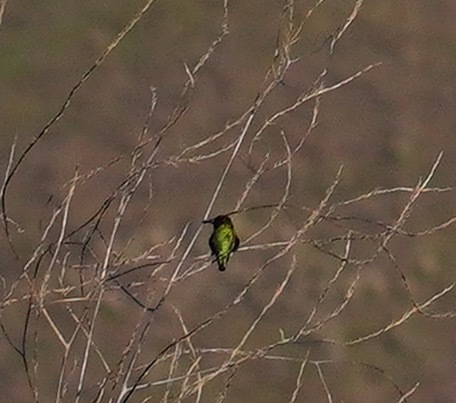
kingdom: Animalia
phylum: Chordata
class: Aves
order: Apodiformes
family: Trochilidae
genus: Calypte
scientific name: Calypte anna
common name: Anna's hummingbird
